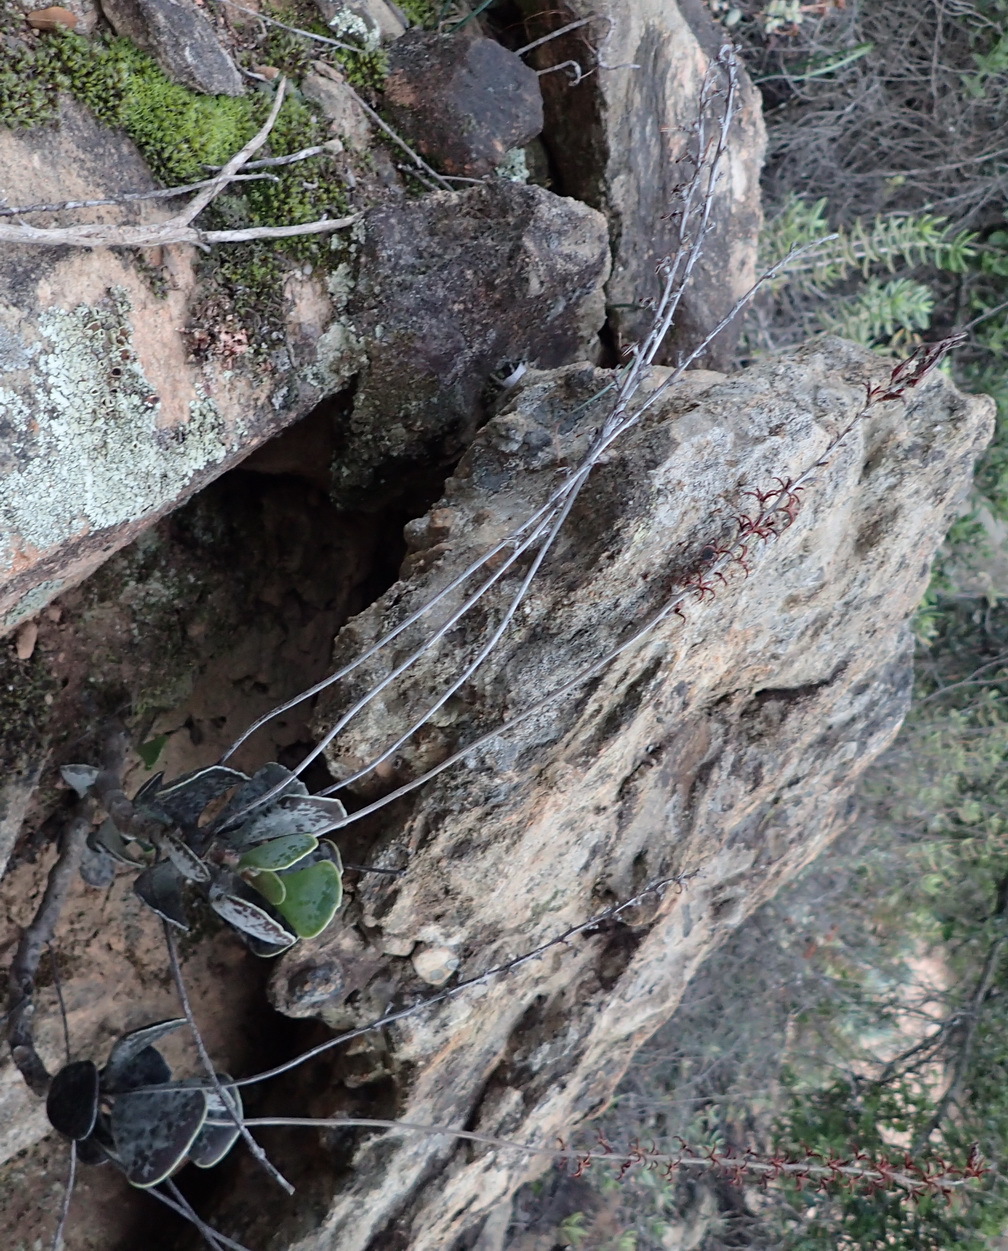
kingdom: Plantae
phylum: Tracheophyta
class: Magnoliopsida
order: Saxifragales
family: Crassulaceae
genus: Adromischus
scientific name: Adromischus triflorus
